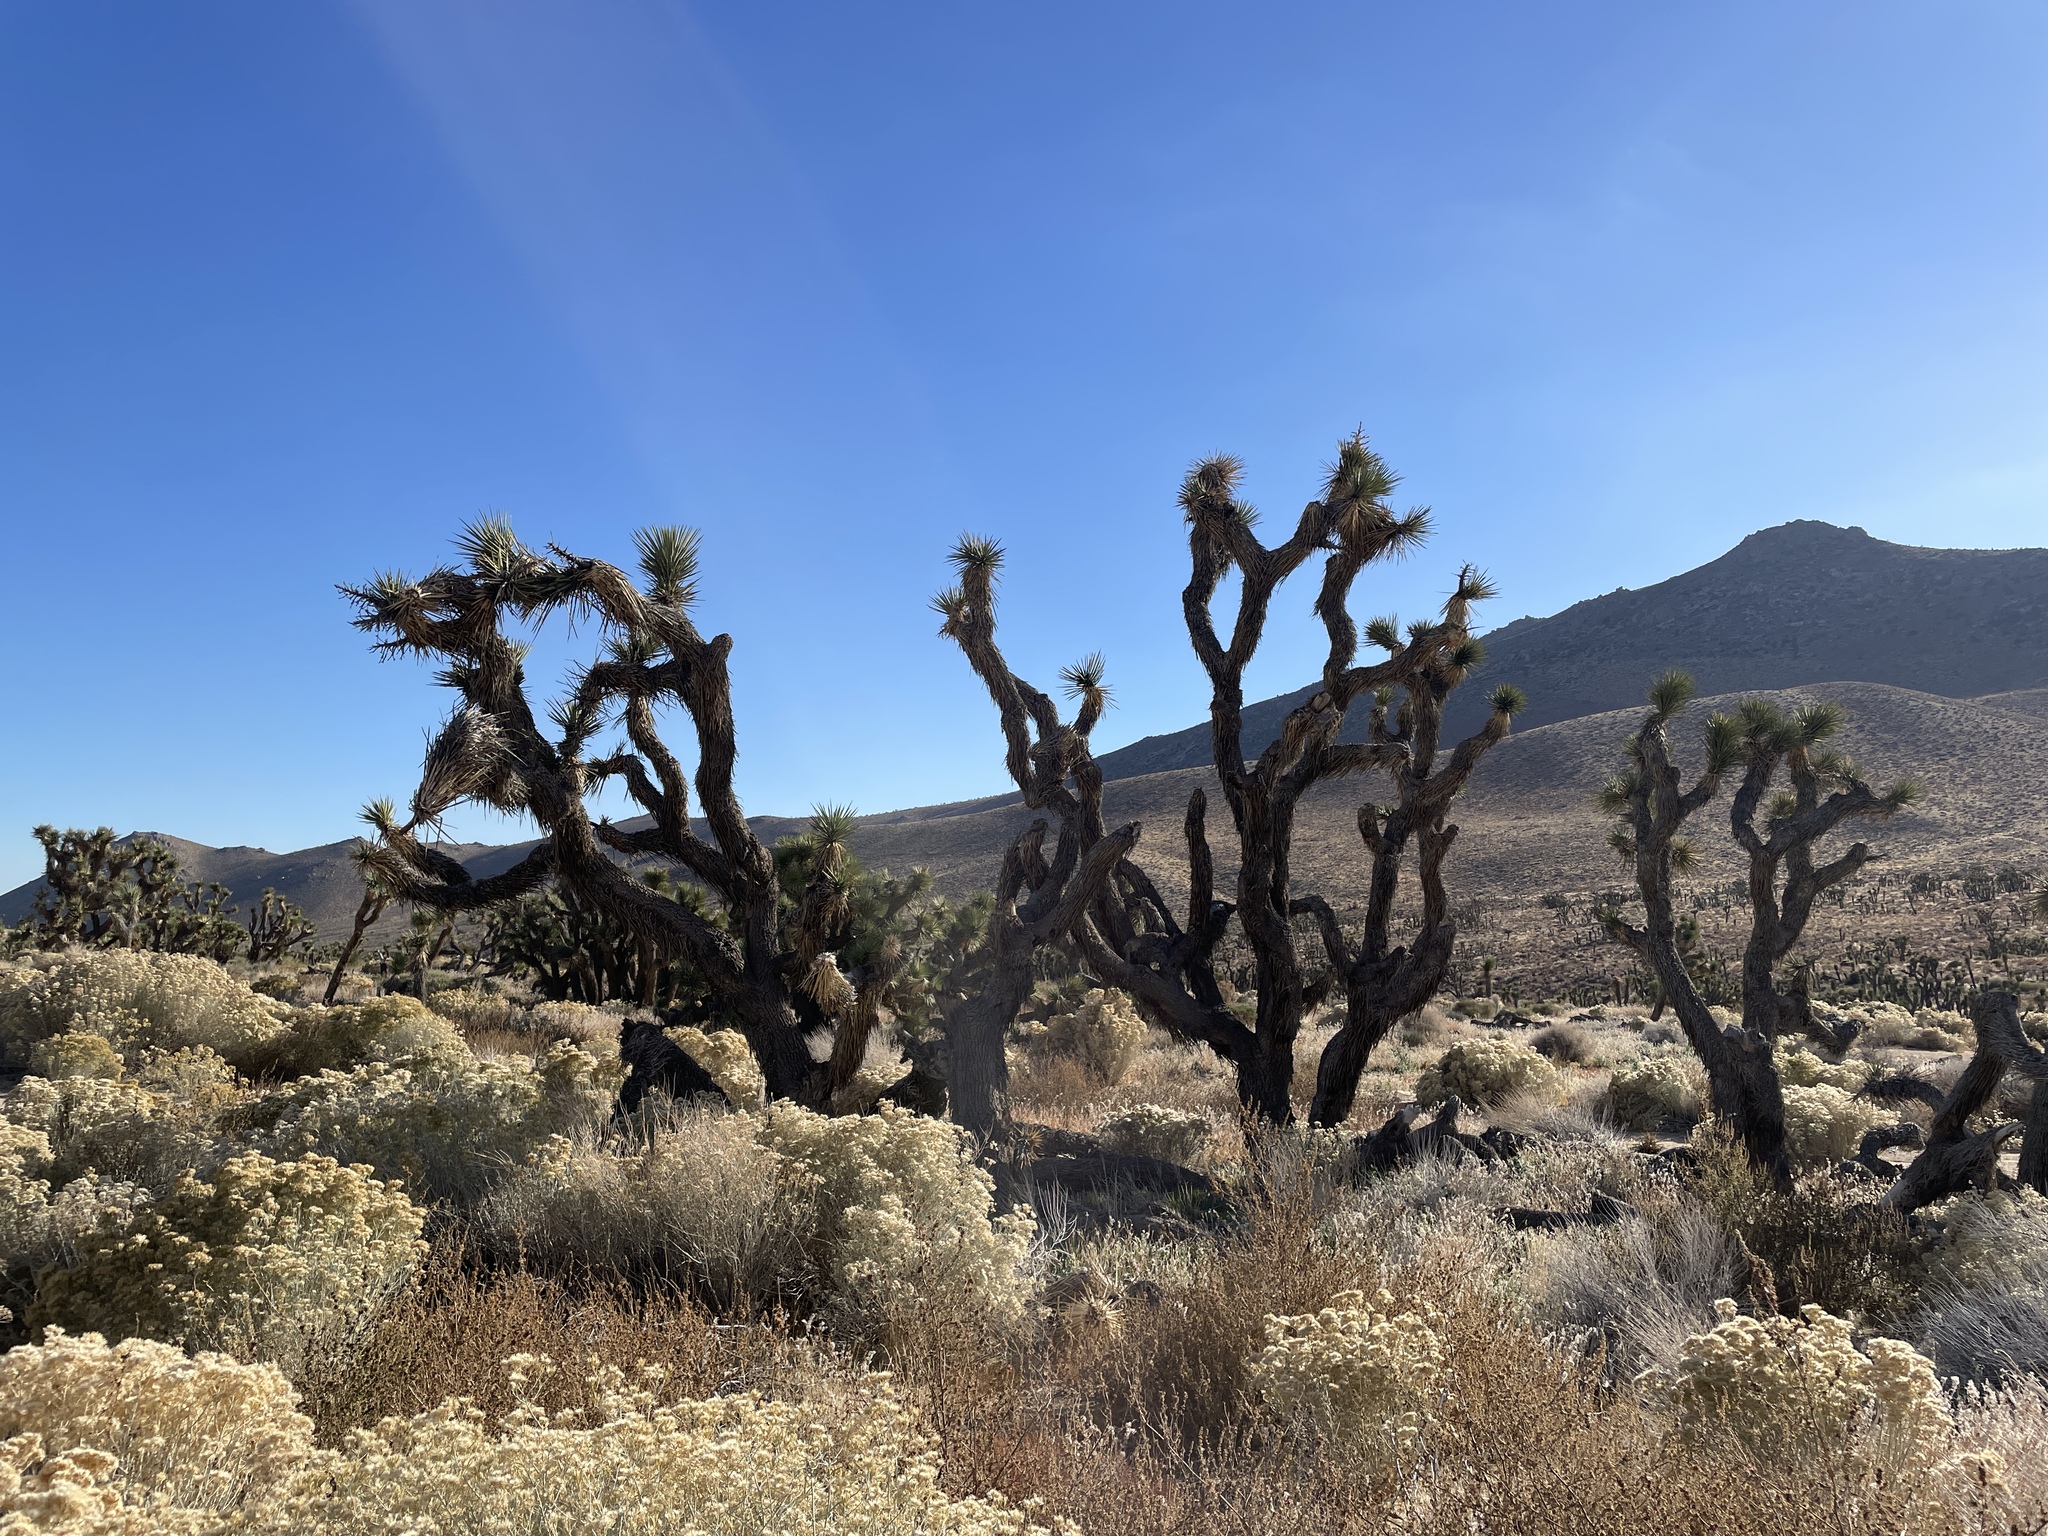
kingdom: Plantae
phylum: Tracheophyta
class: Liliopsida
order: Asparagales
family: Asparagaceae
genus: Yucca
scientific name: Yucca brevifolia
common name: Joshua tree
